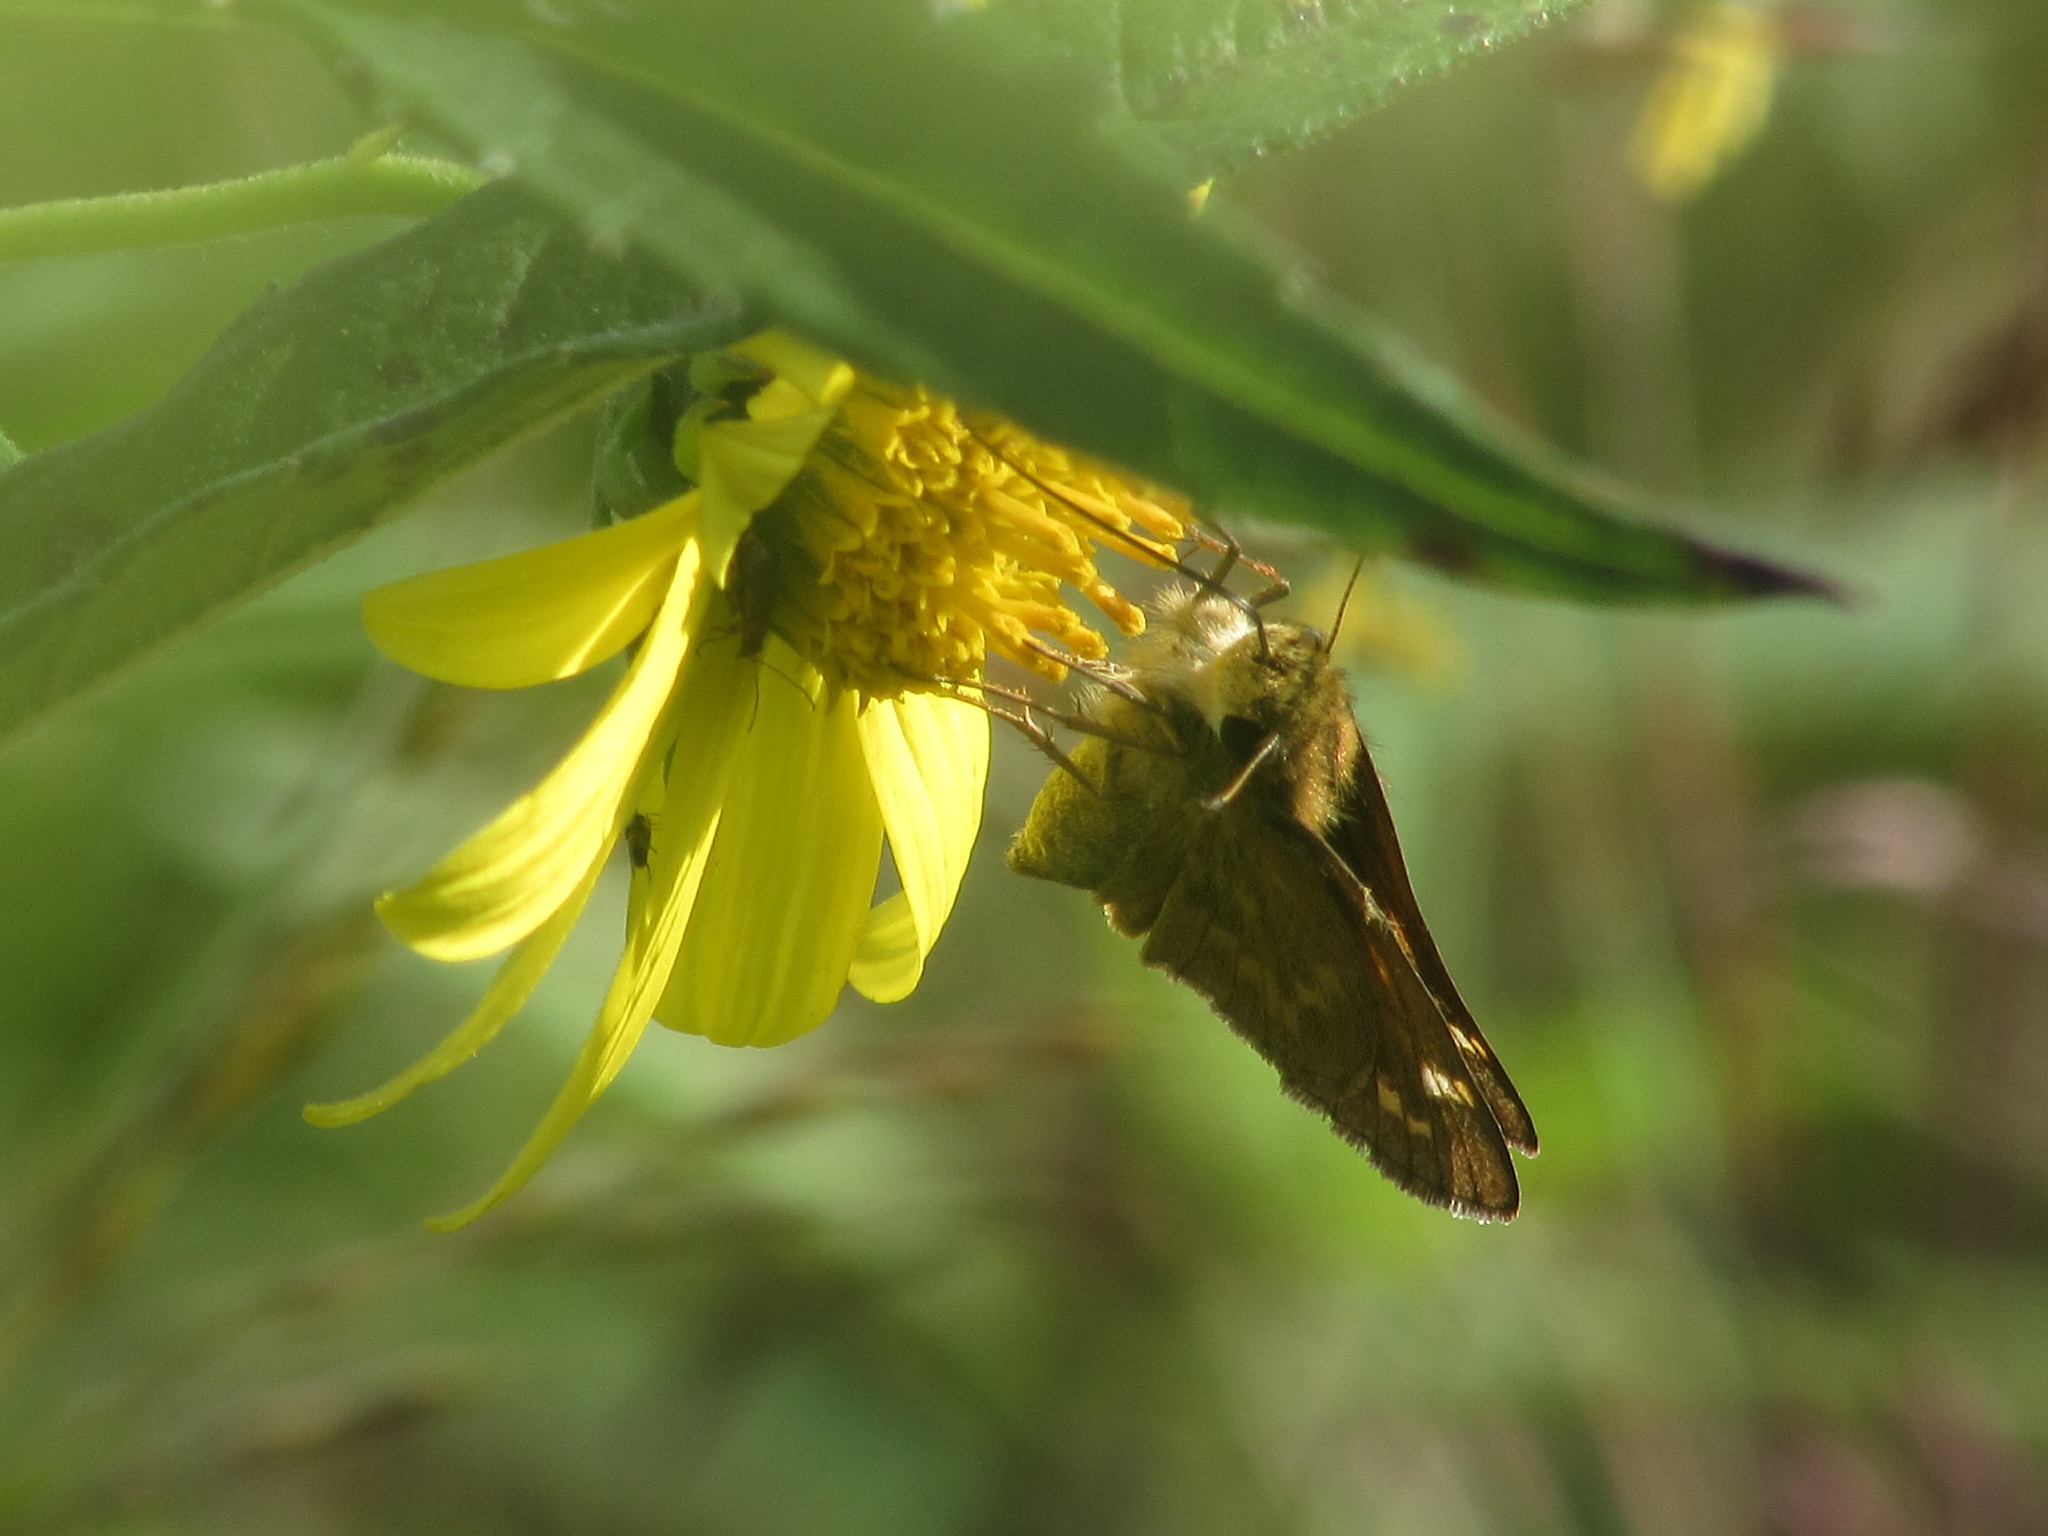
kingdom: Animalia
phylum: Arthropoda
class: Insecta
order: Lepidoptera
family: Hesperiidae
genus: Atalopedes
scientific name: Atalopedes
